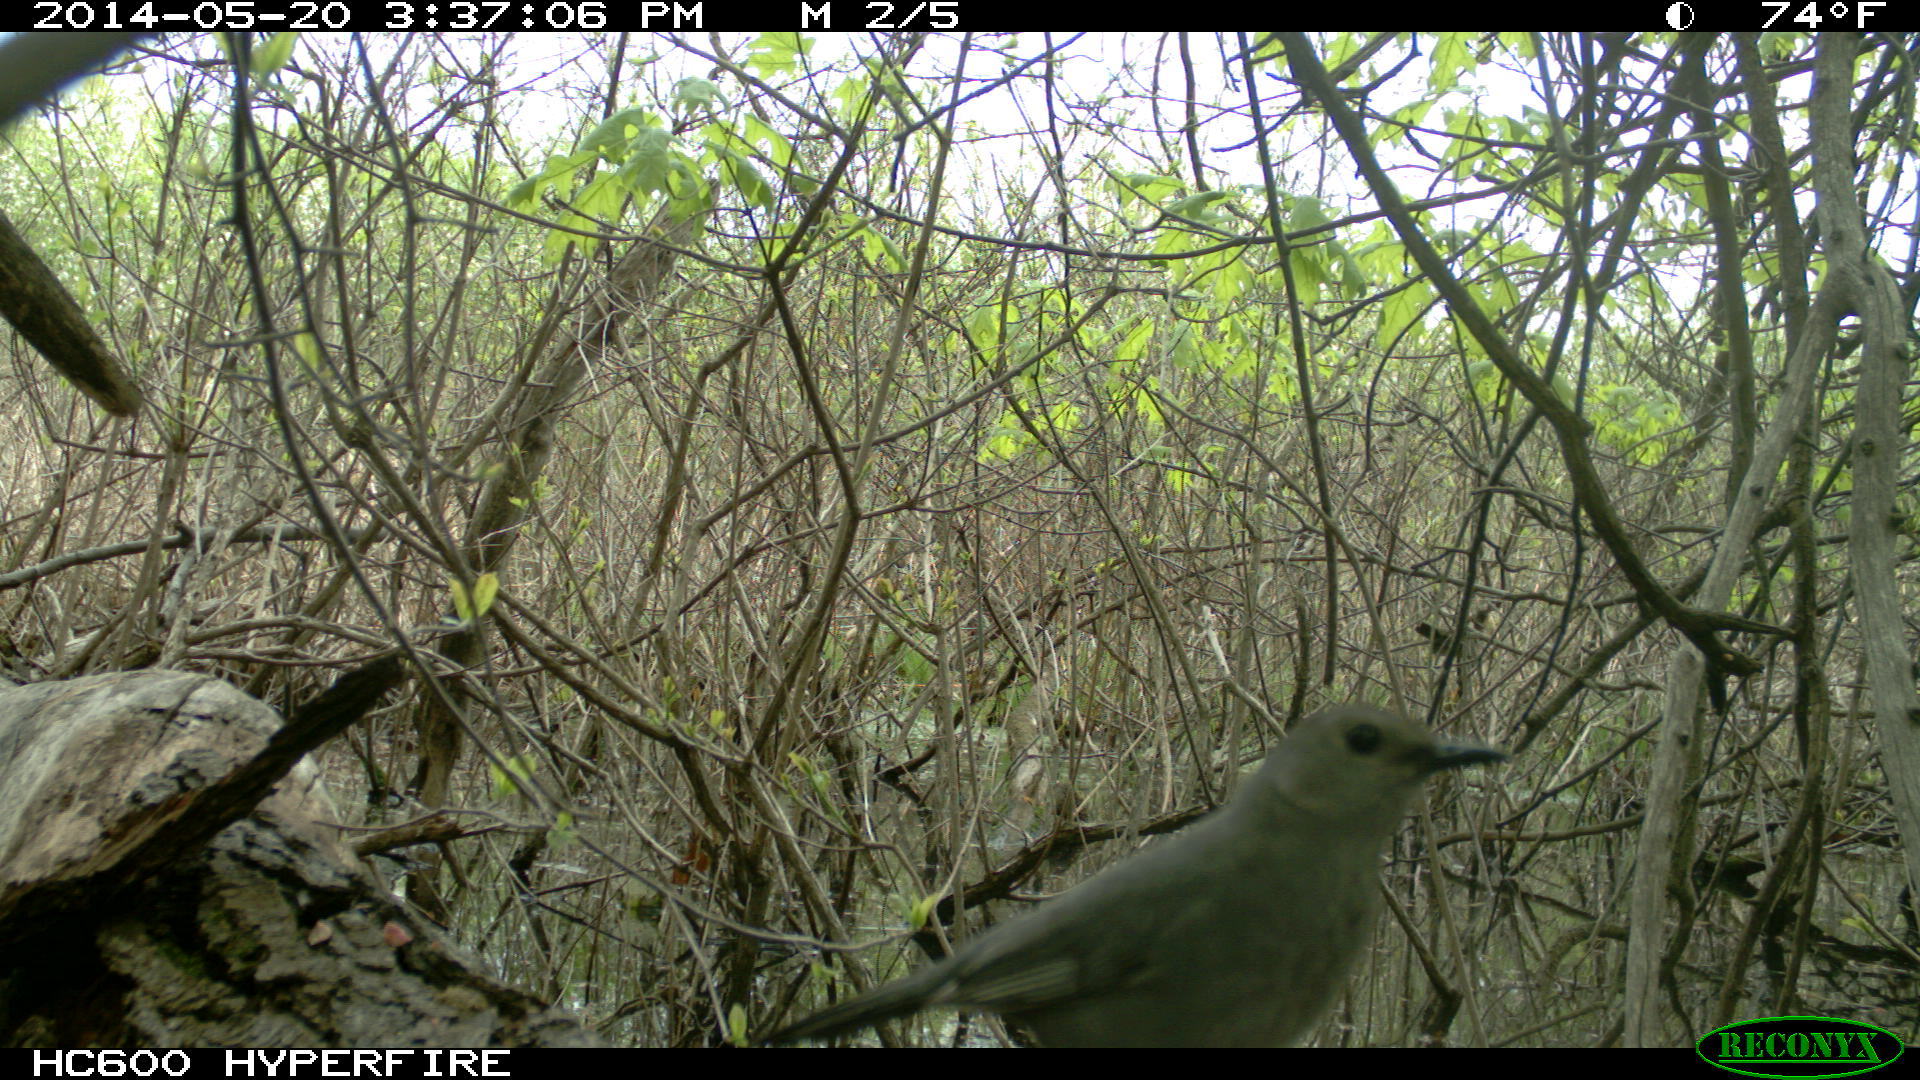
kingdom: Animalia
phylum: Chordata
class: Aves
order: Passeriformes
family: Mimidae
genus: Dumetella
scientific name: Dumetella carolinensis
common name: Gray catbird
